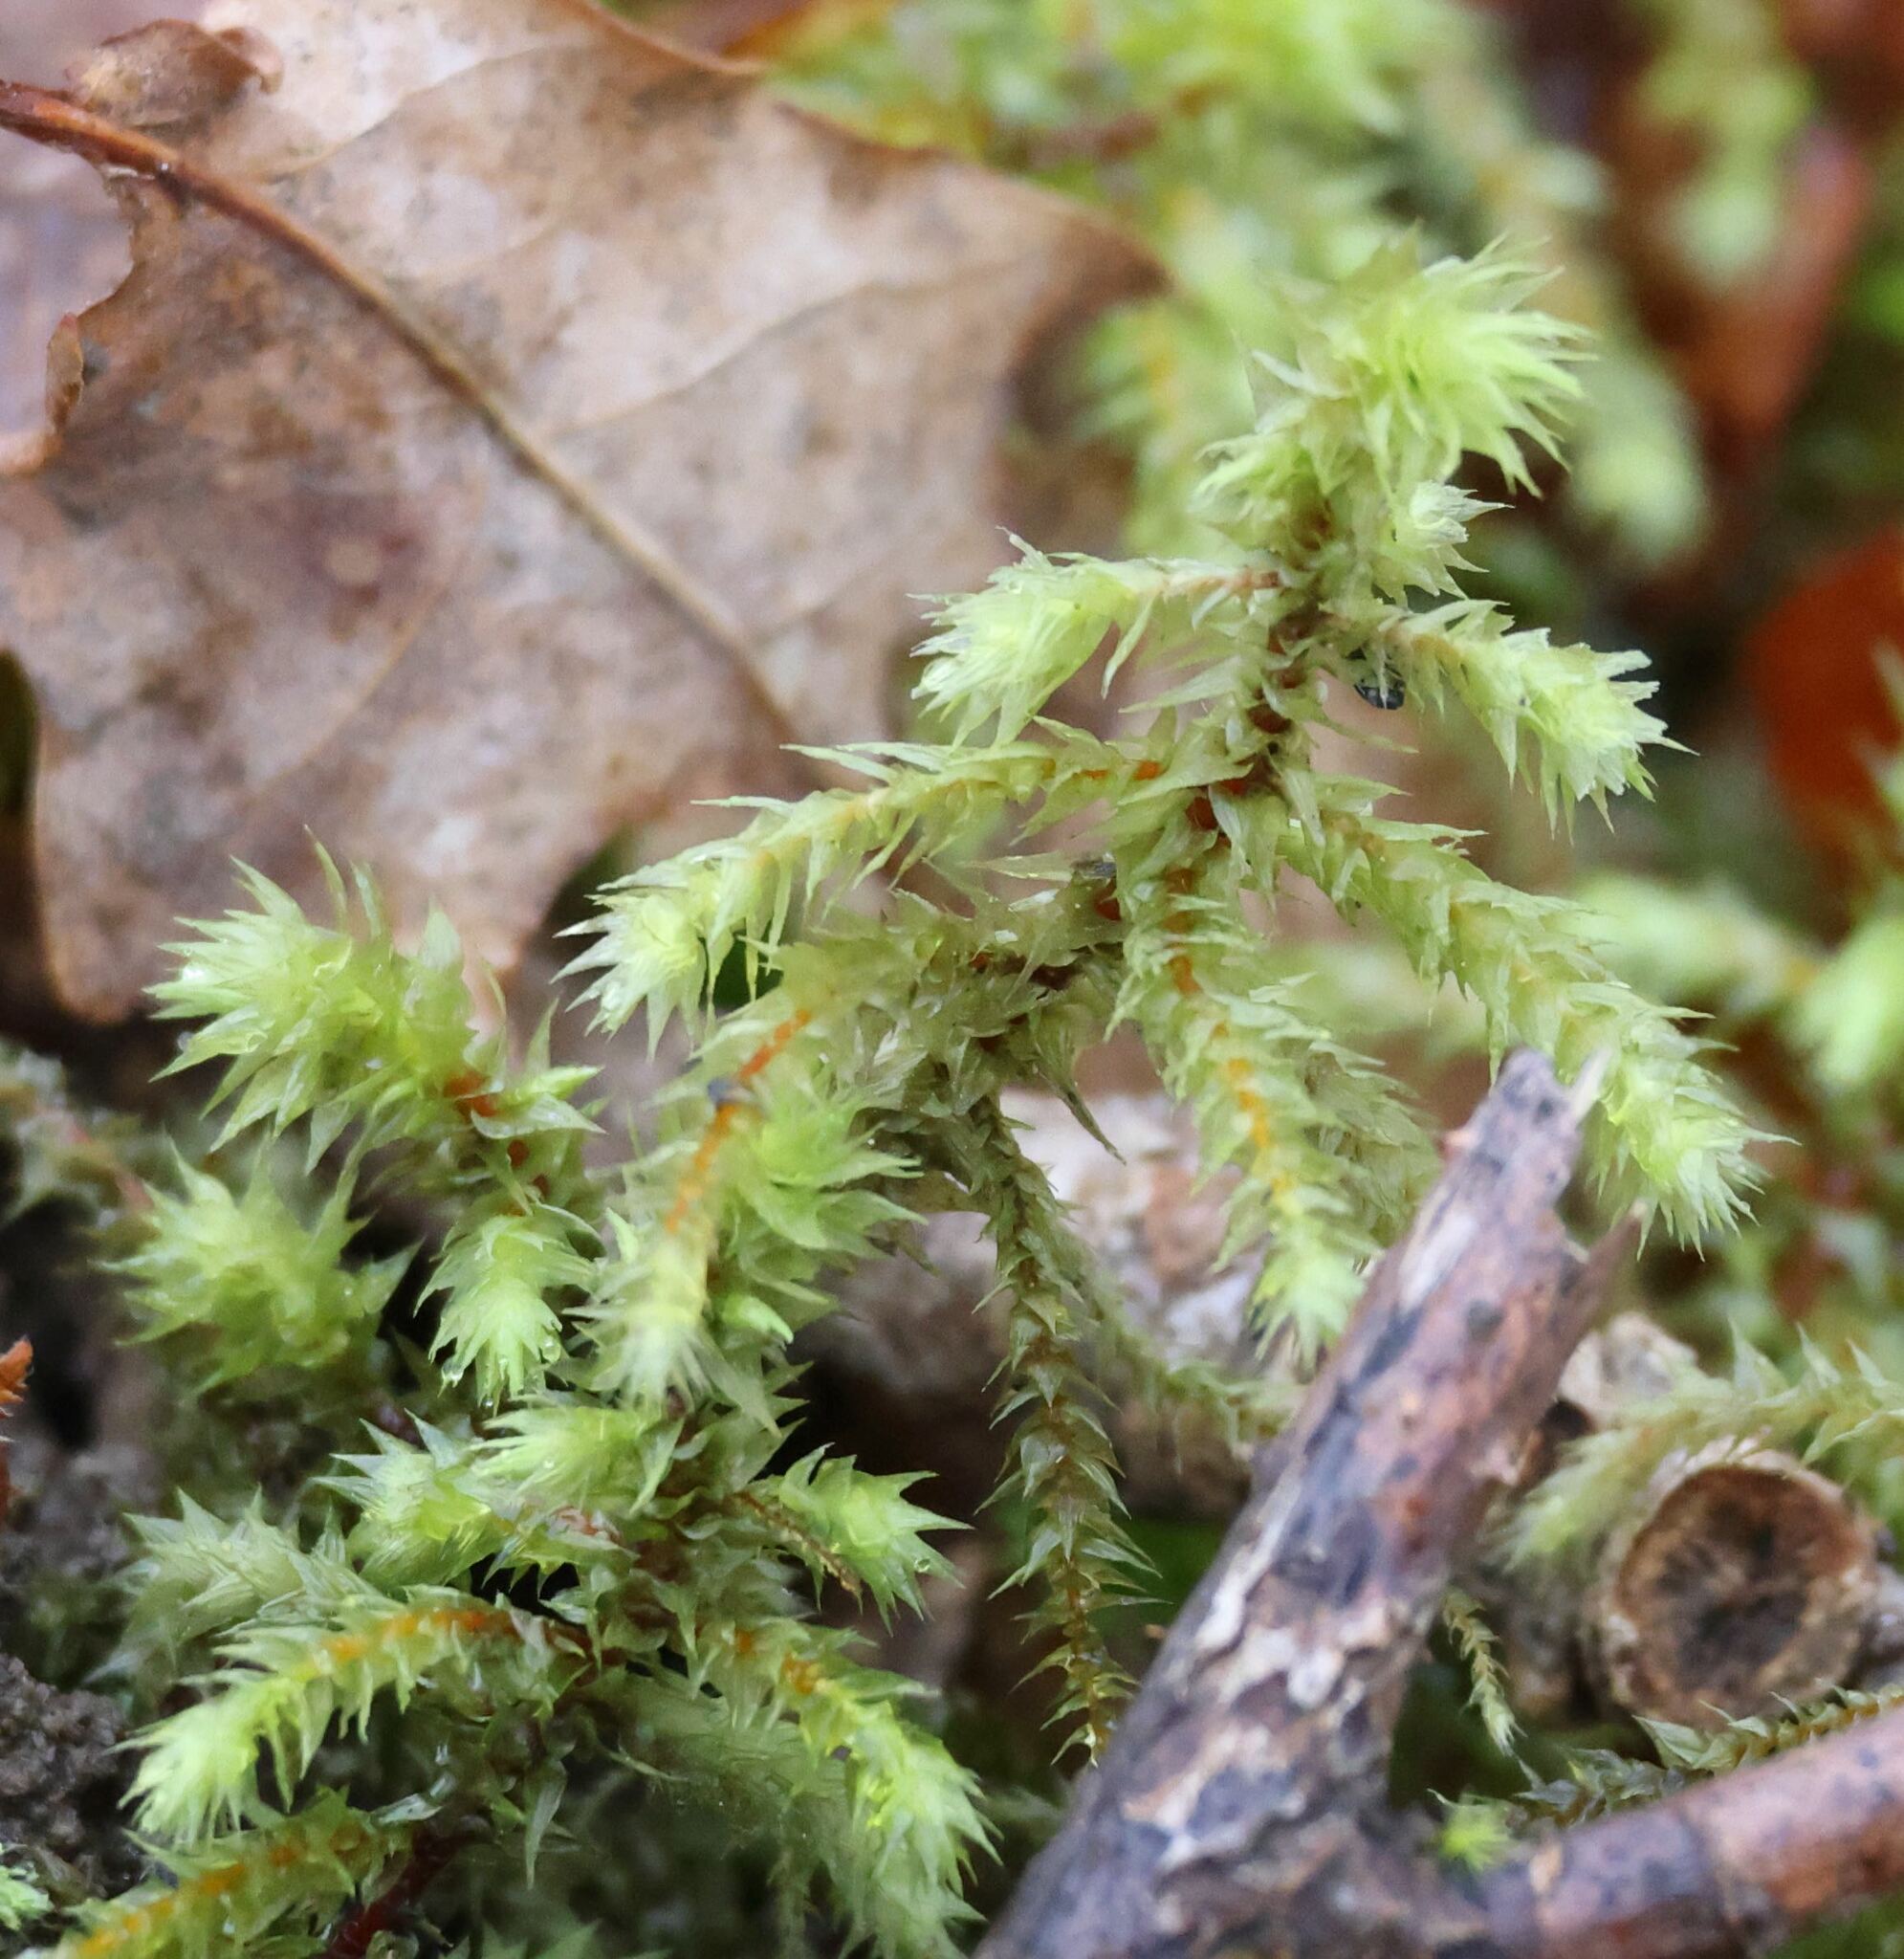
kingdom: Plantae
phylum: Bryophyta
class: Bryopsida
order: Hypnales
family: Hylocomiaceae
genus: Hylocomiadelphus
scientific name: Hylocomiadelphus triquetrus
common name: Rough goose neck moss
